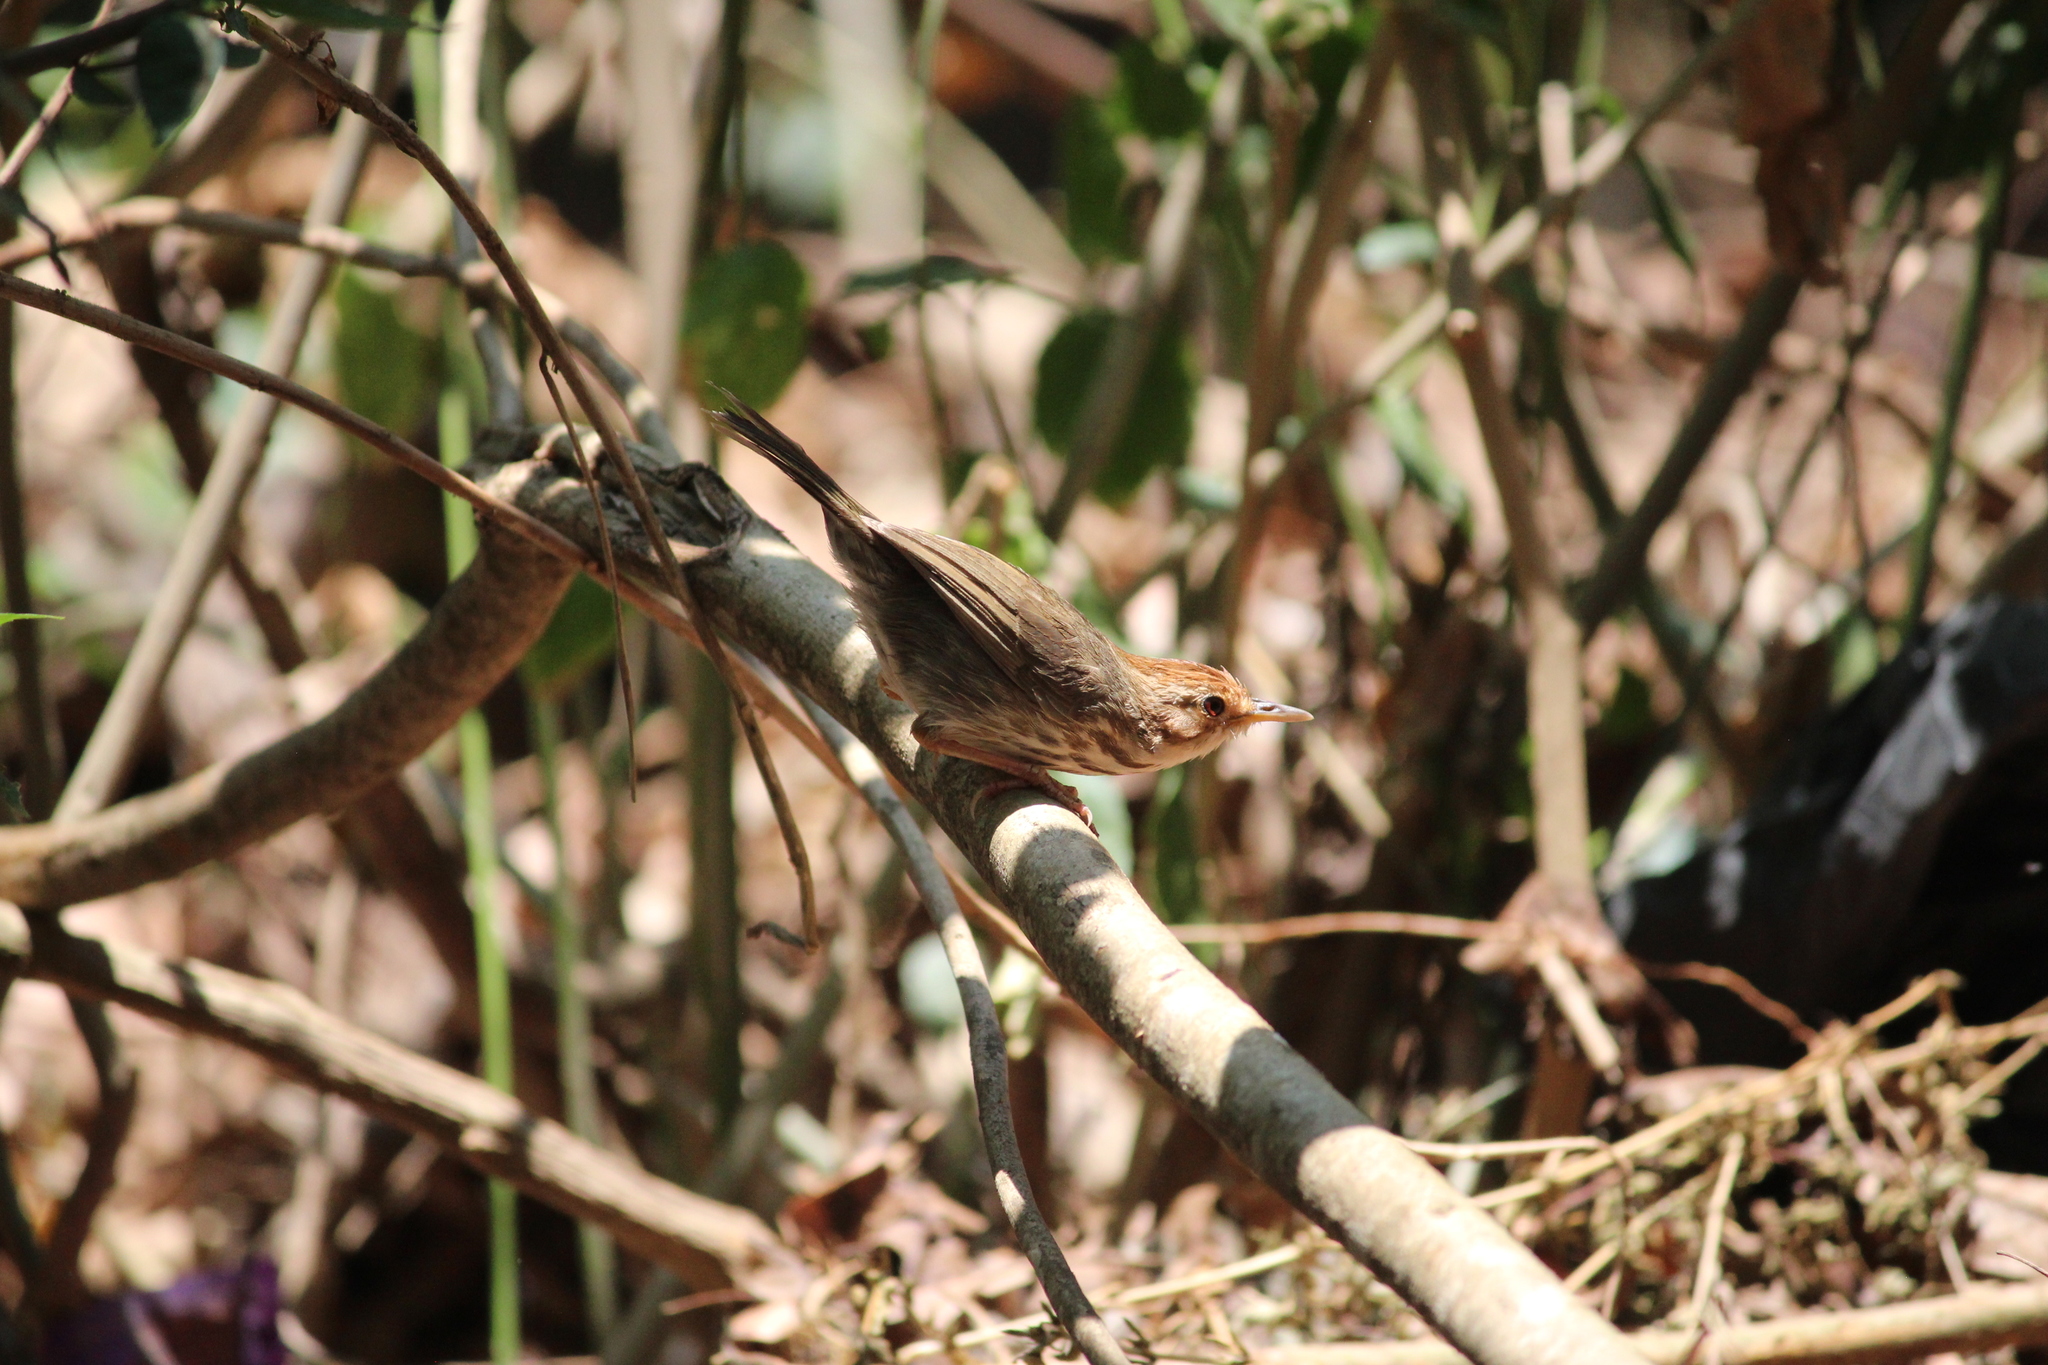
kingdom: Animalia
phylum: Chordata
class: Aves
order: Passeriformes
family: Pellorneidae
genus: Pellorneum
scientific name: Pellorneum ruficeps
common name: Puff-throated babbler
